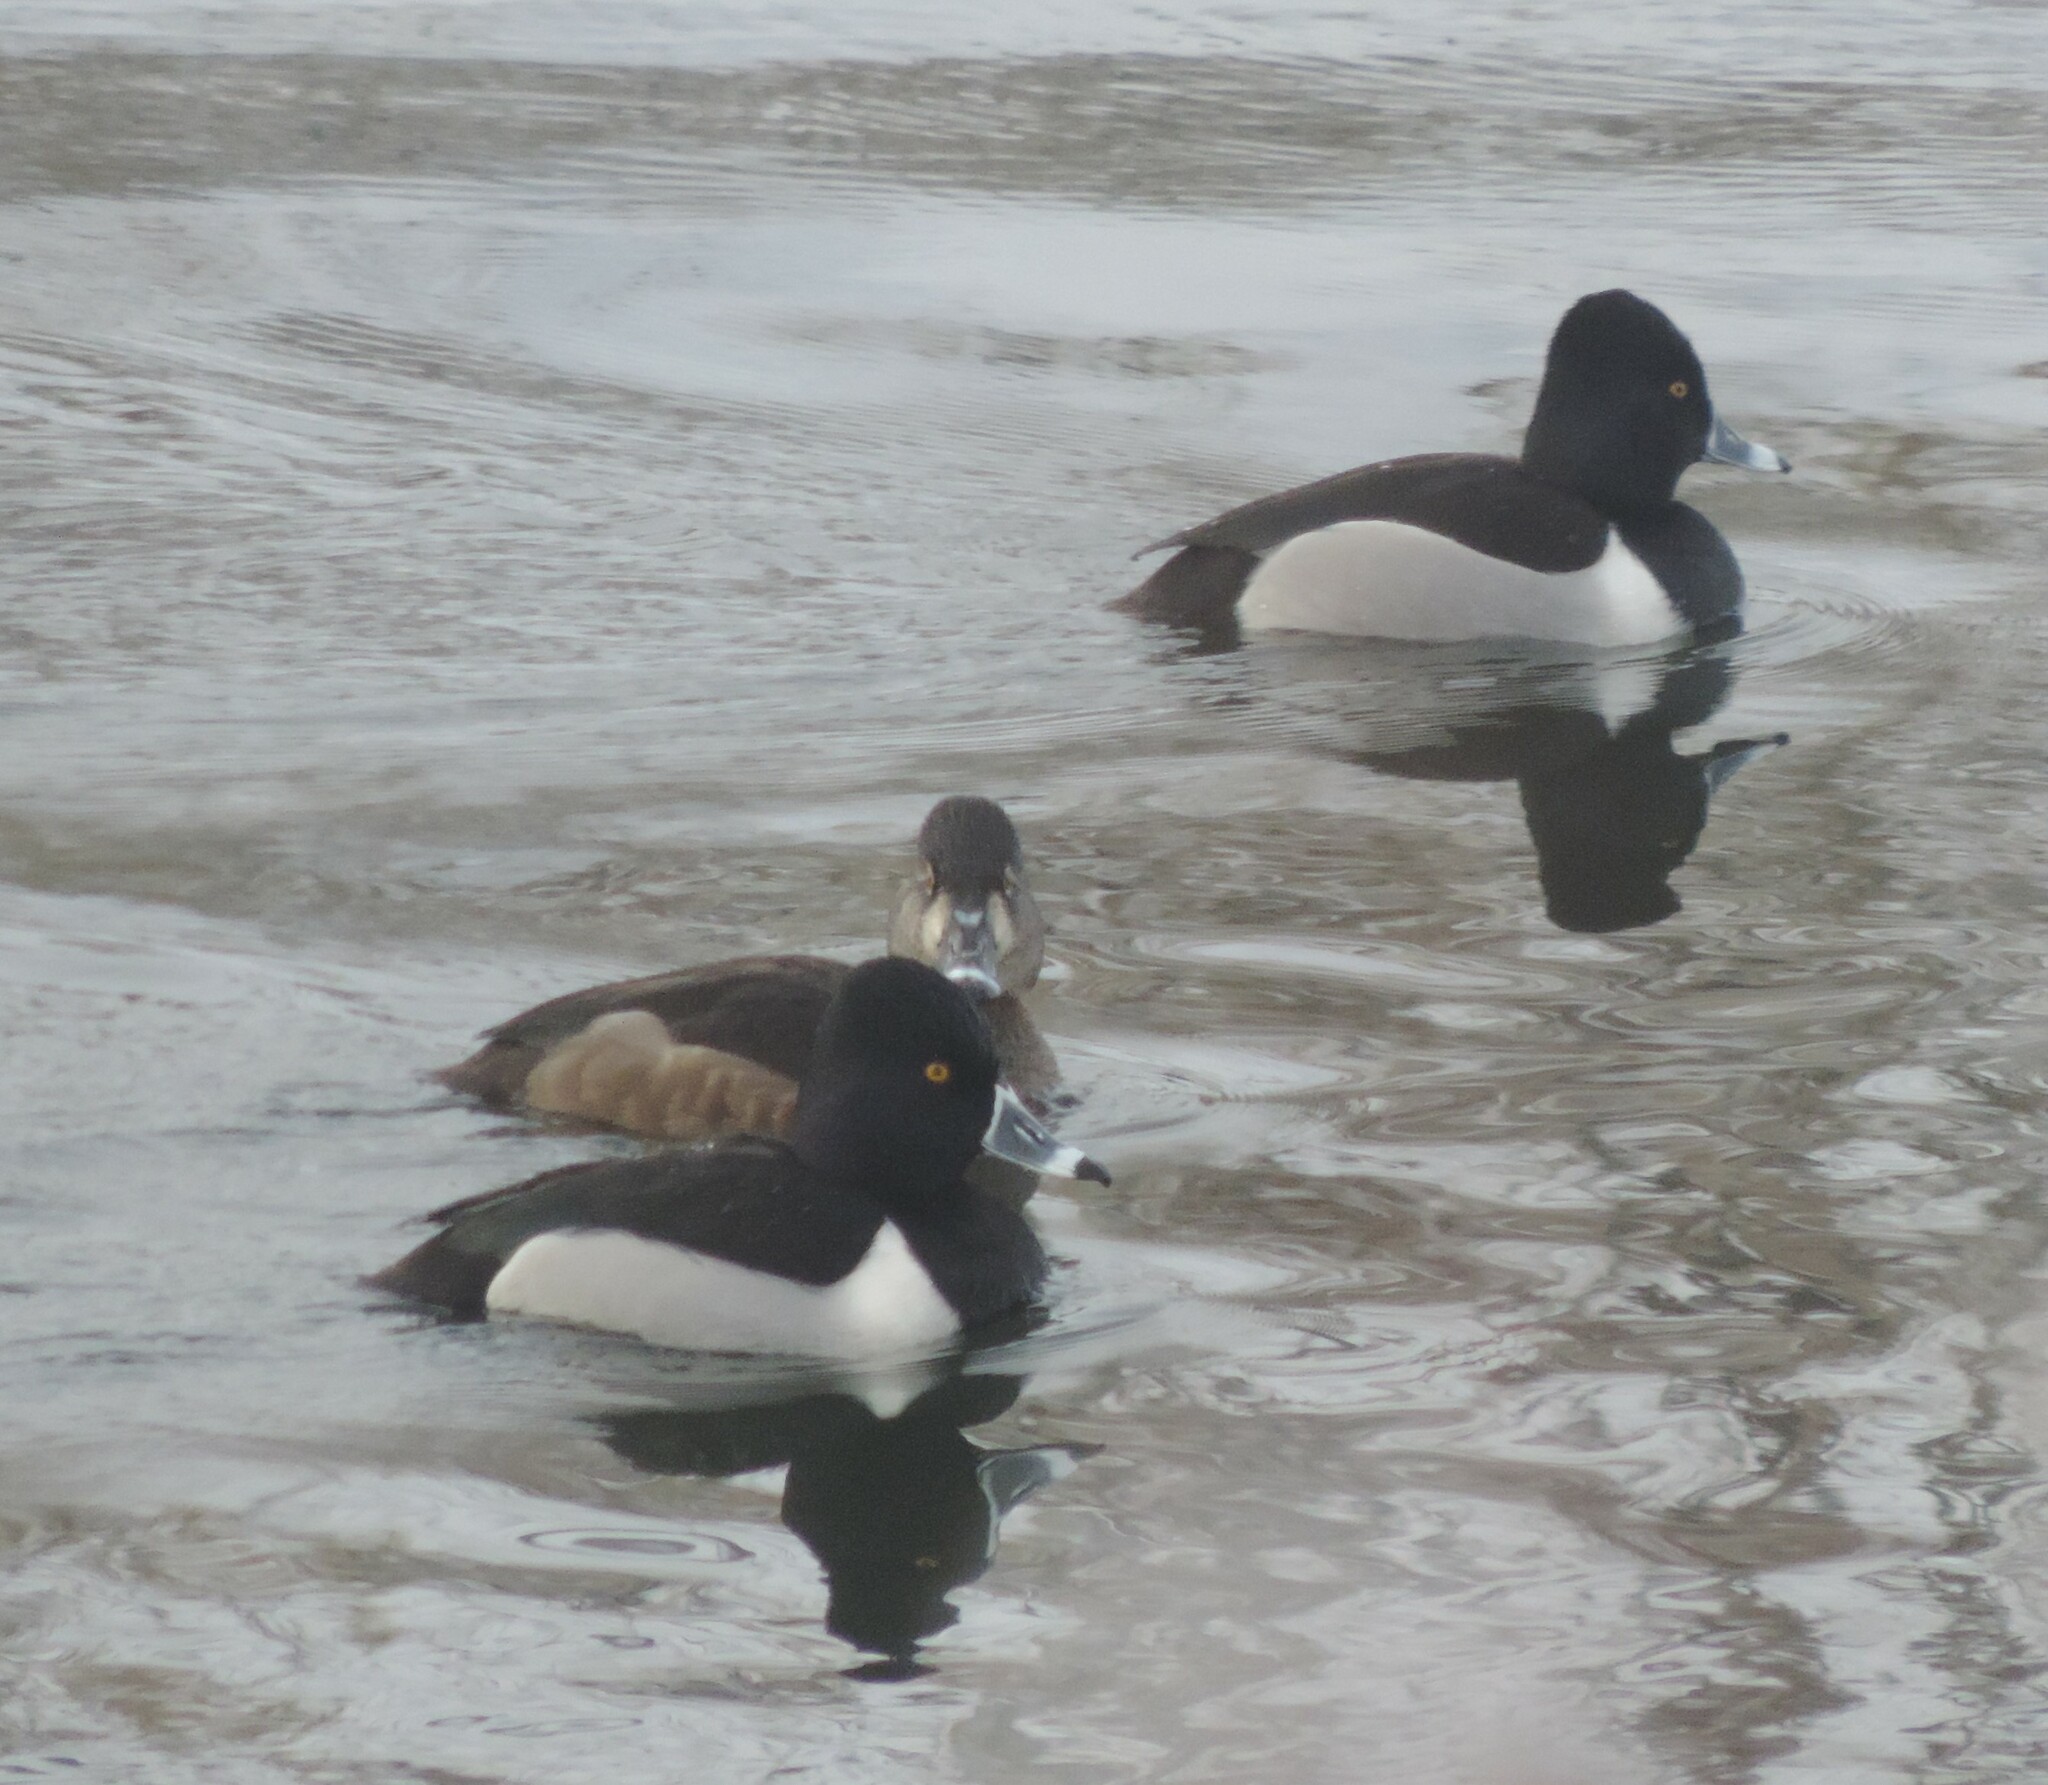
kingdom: Animalia
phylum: Chordata
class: Aves
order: Anseriformes
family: Anatidae
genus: Aythya
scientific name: Aythya collaris
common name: Ring-necked duck
